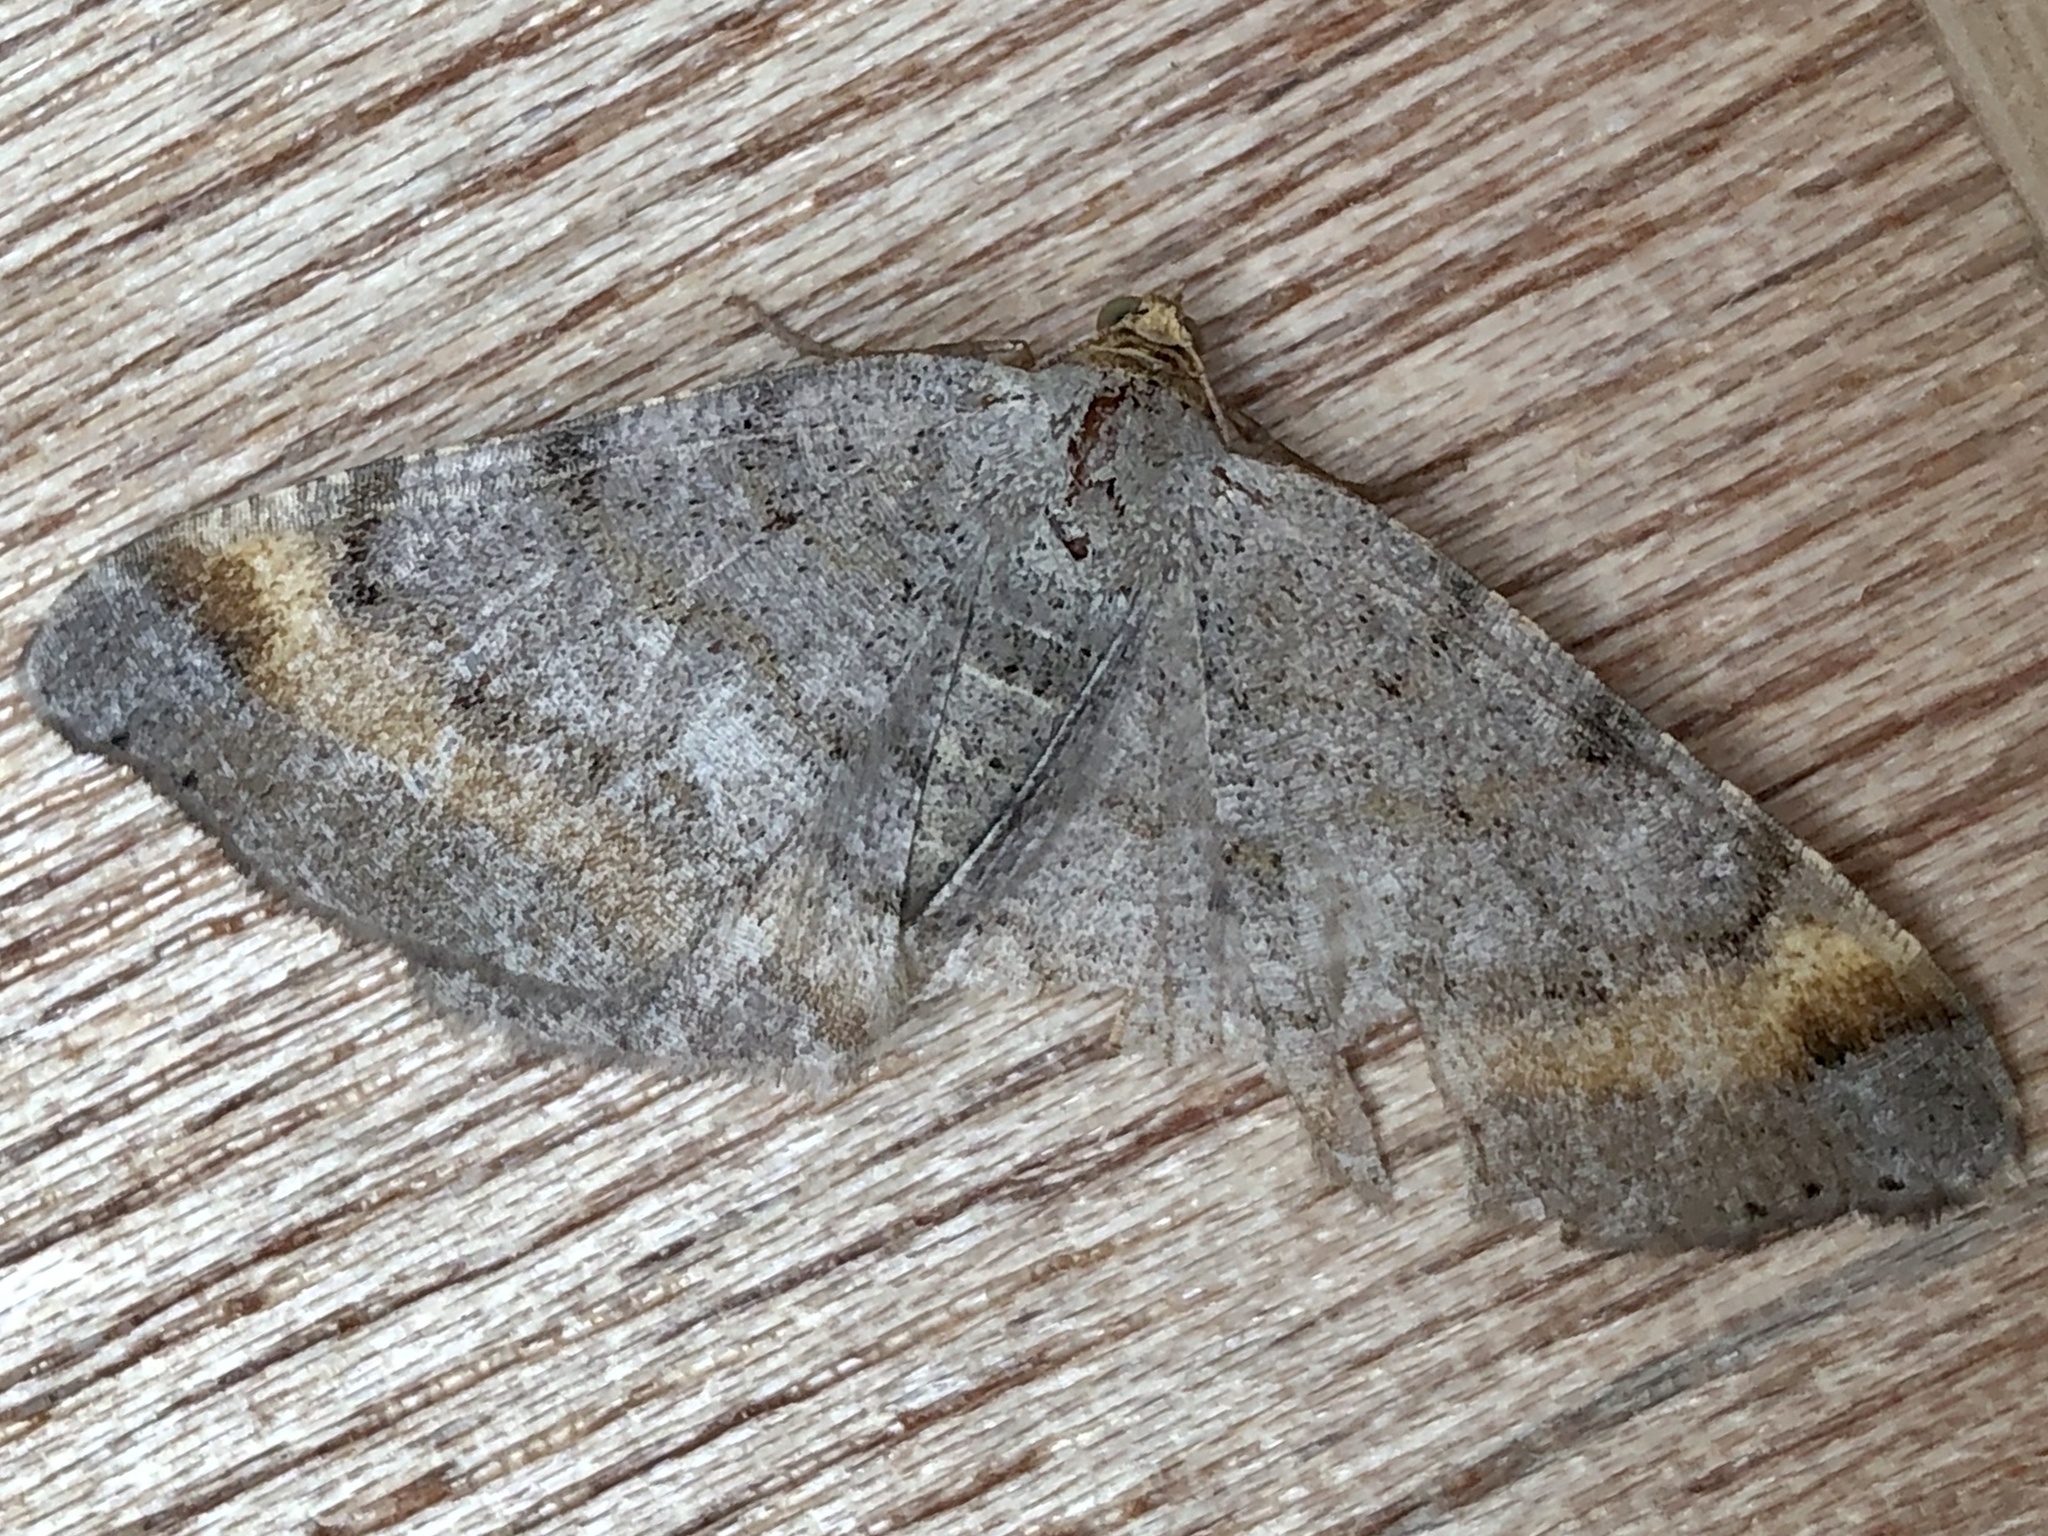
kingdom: Animalia
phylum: Arthropoda
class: Insecta
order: Lepidoptera
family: Geometridae
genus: Macaria
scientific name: Macaria liturata
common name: Tawny-barred angle
